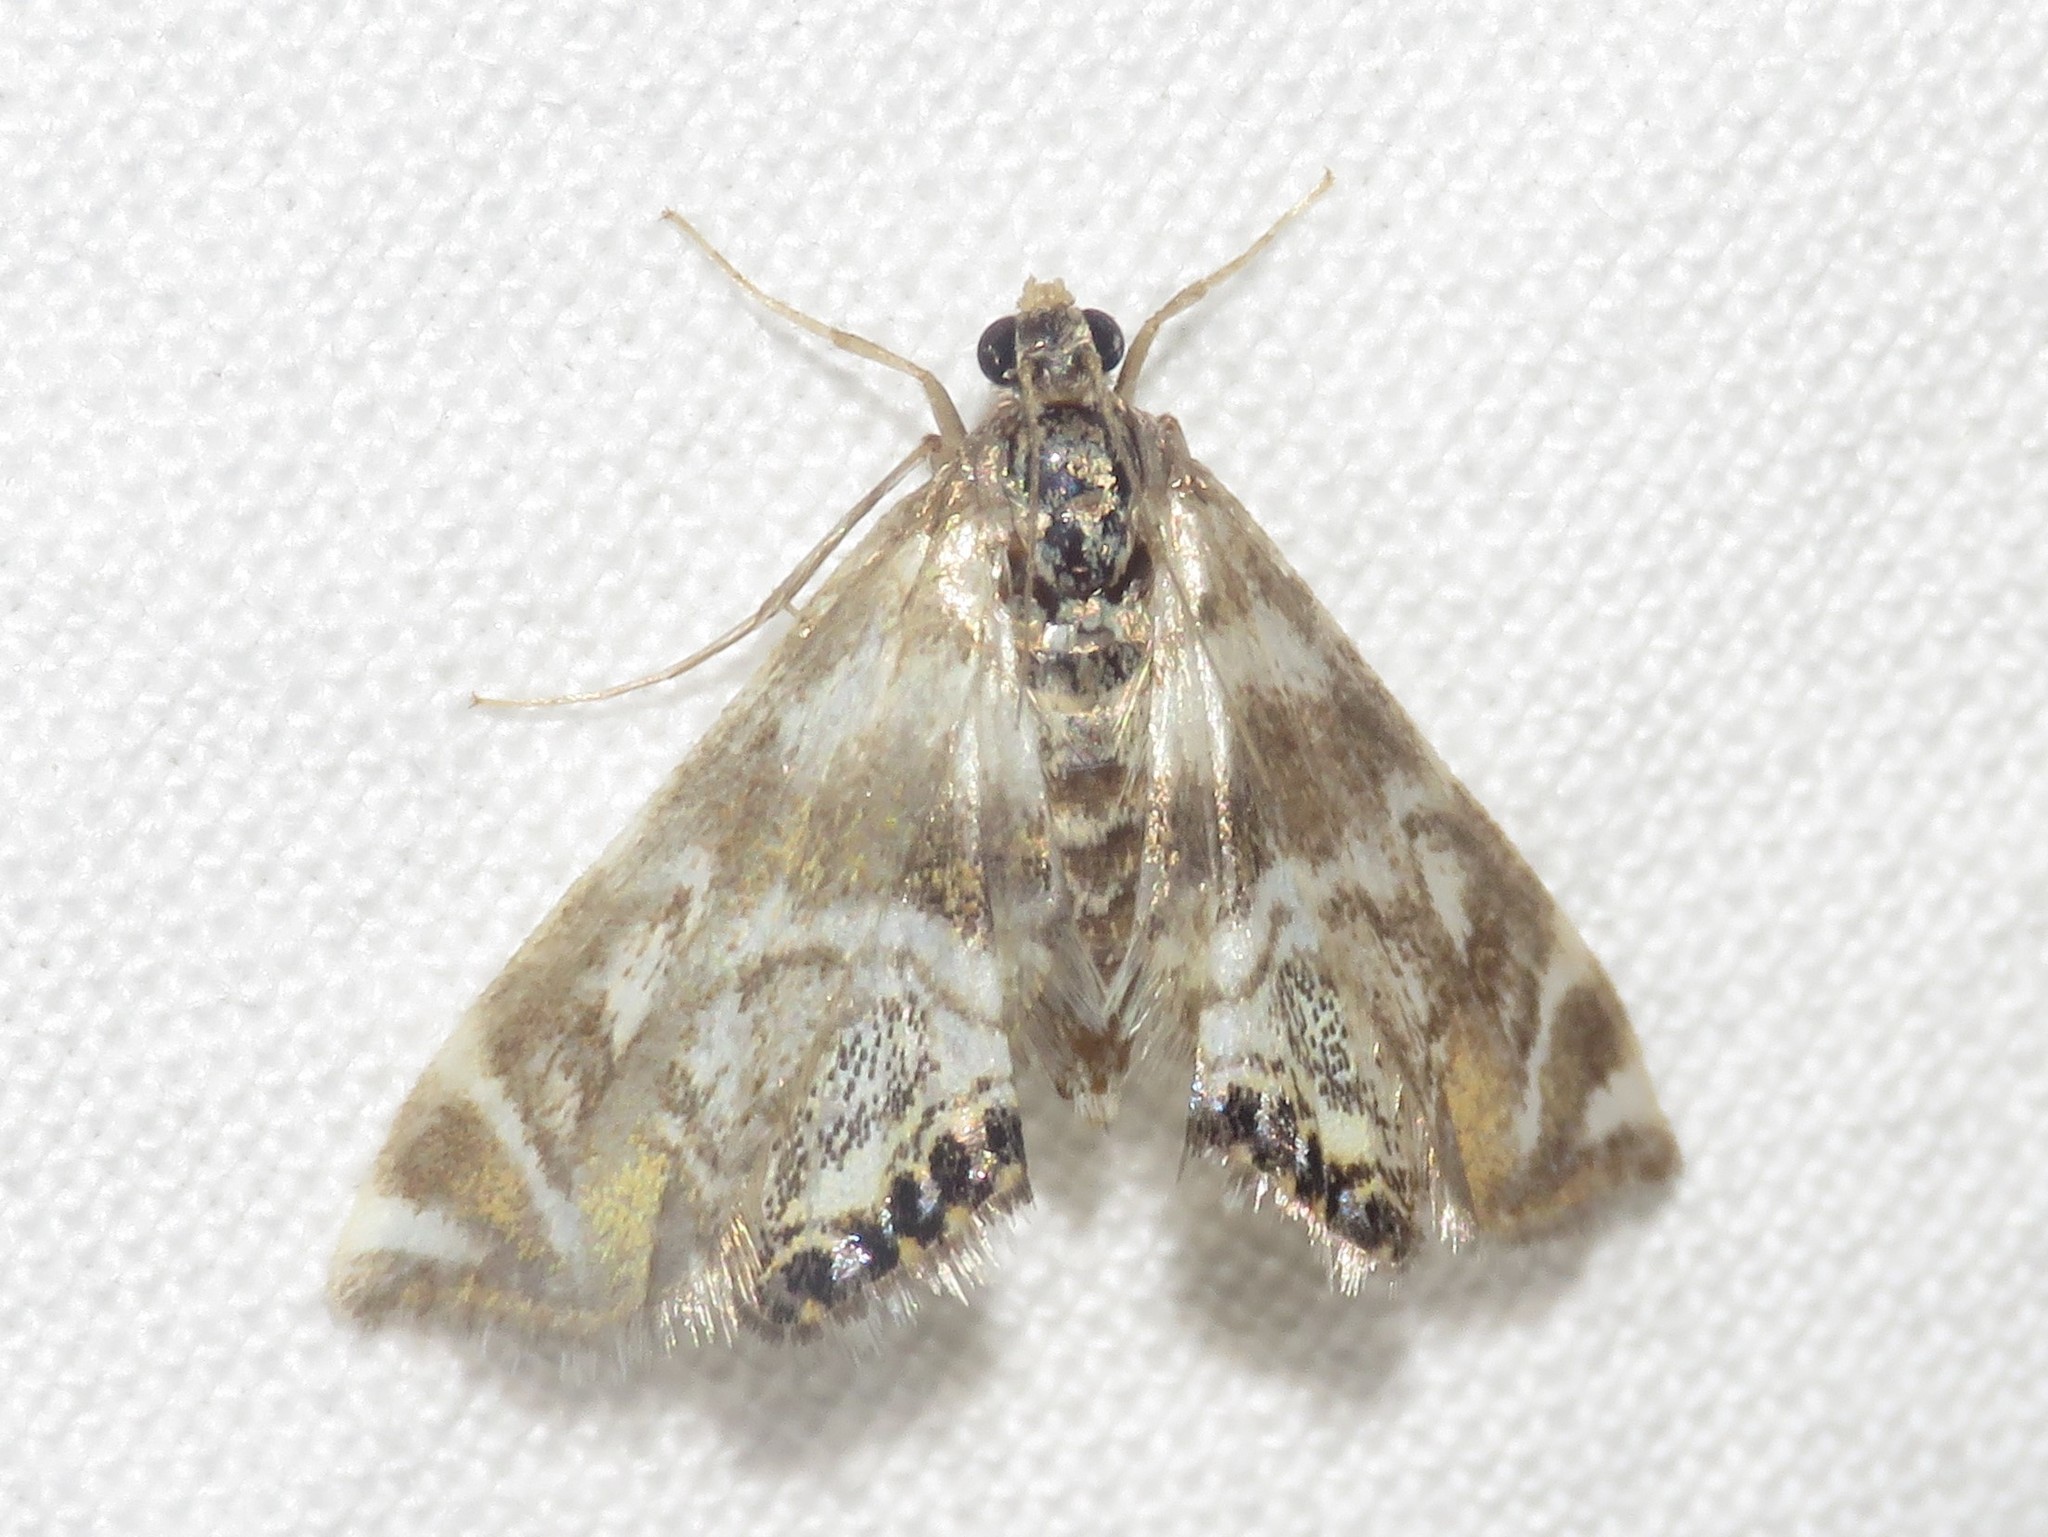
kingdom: Animalia
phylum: Arthropoda
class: Insecta
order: Lepidoptera
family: Crambidae
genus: Petrophila
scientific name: Petrophila canadensis
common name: Canadian petrophila
